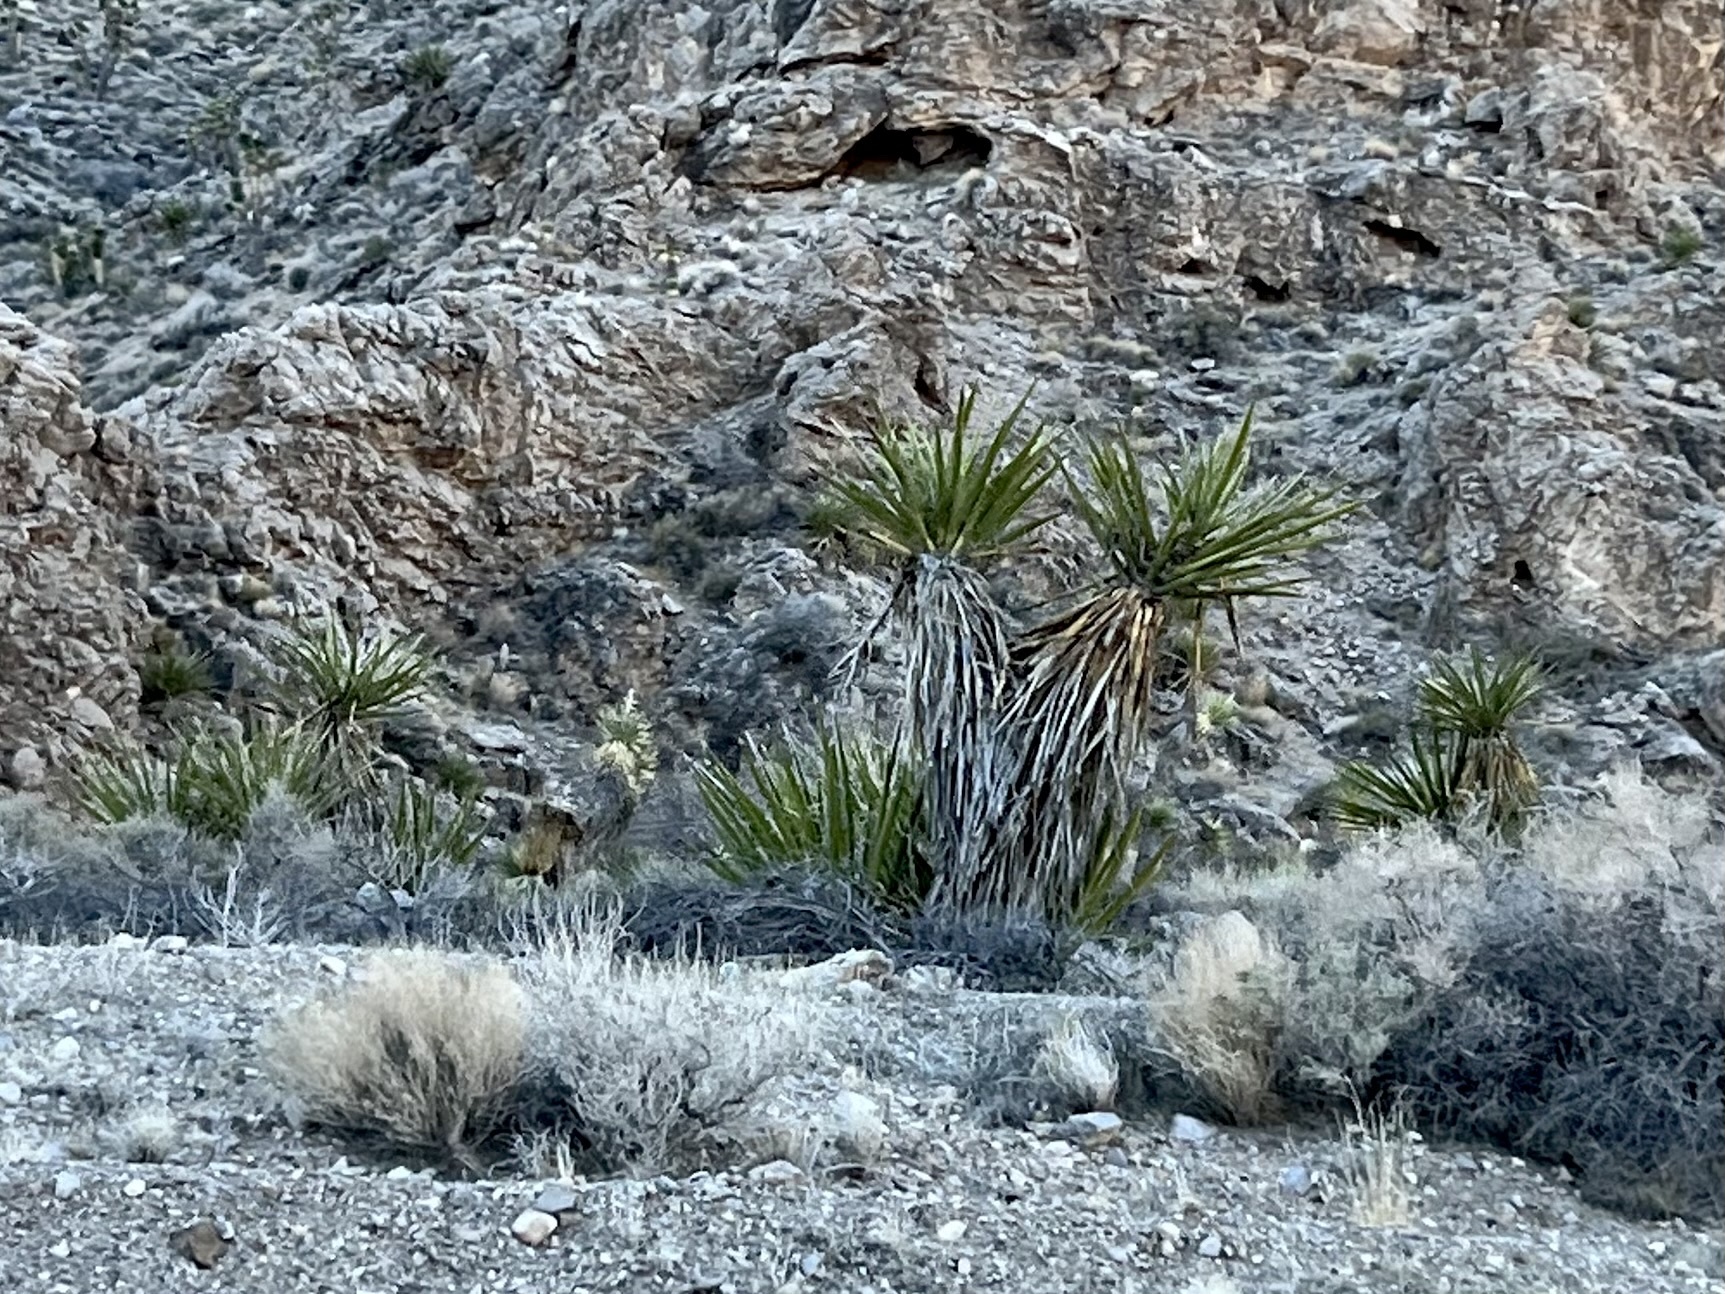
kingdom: Plantae
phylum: Tracheophyta
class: Liliopsida
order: Asparagales
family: Asparagaceae
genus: Yucca
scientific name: Yucca schidigera
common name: Mojave yucca
